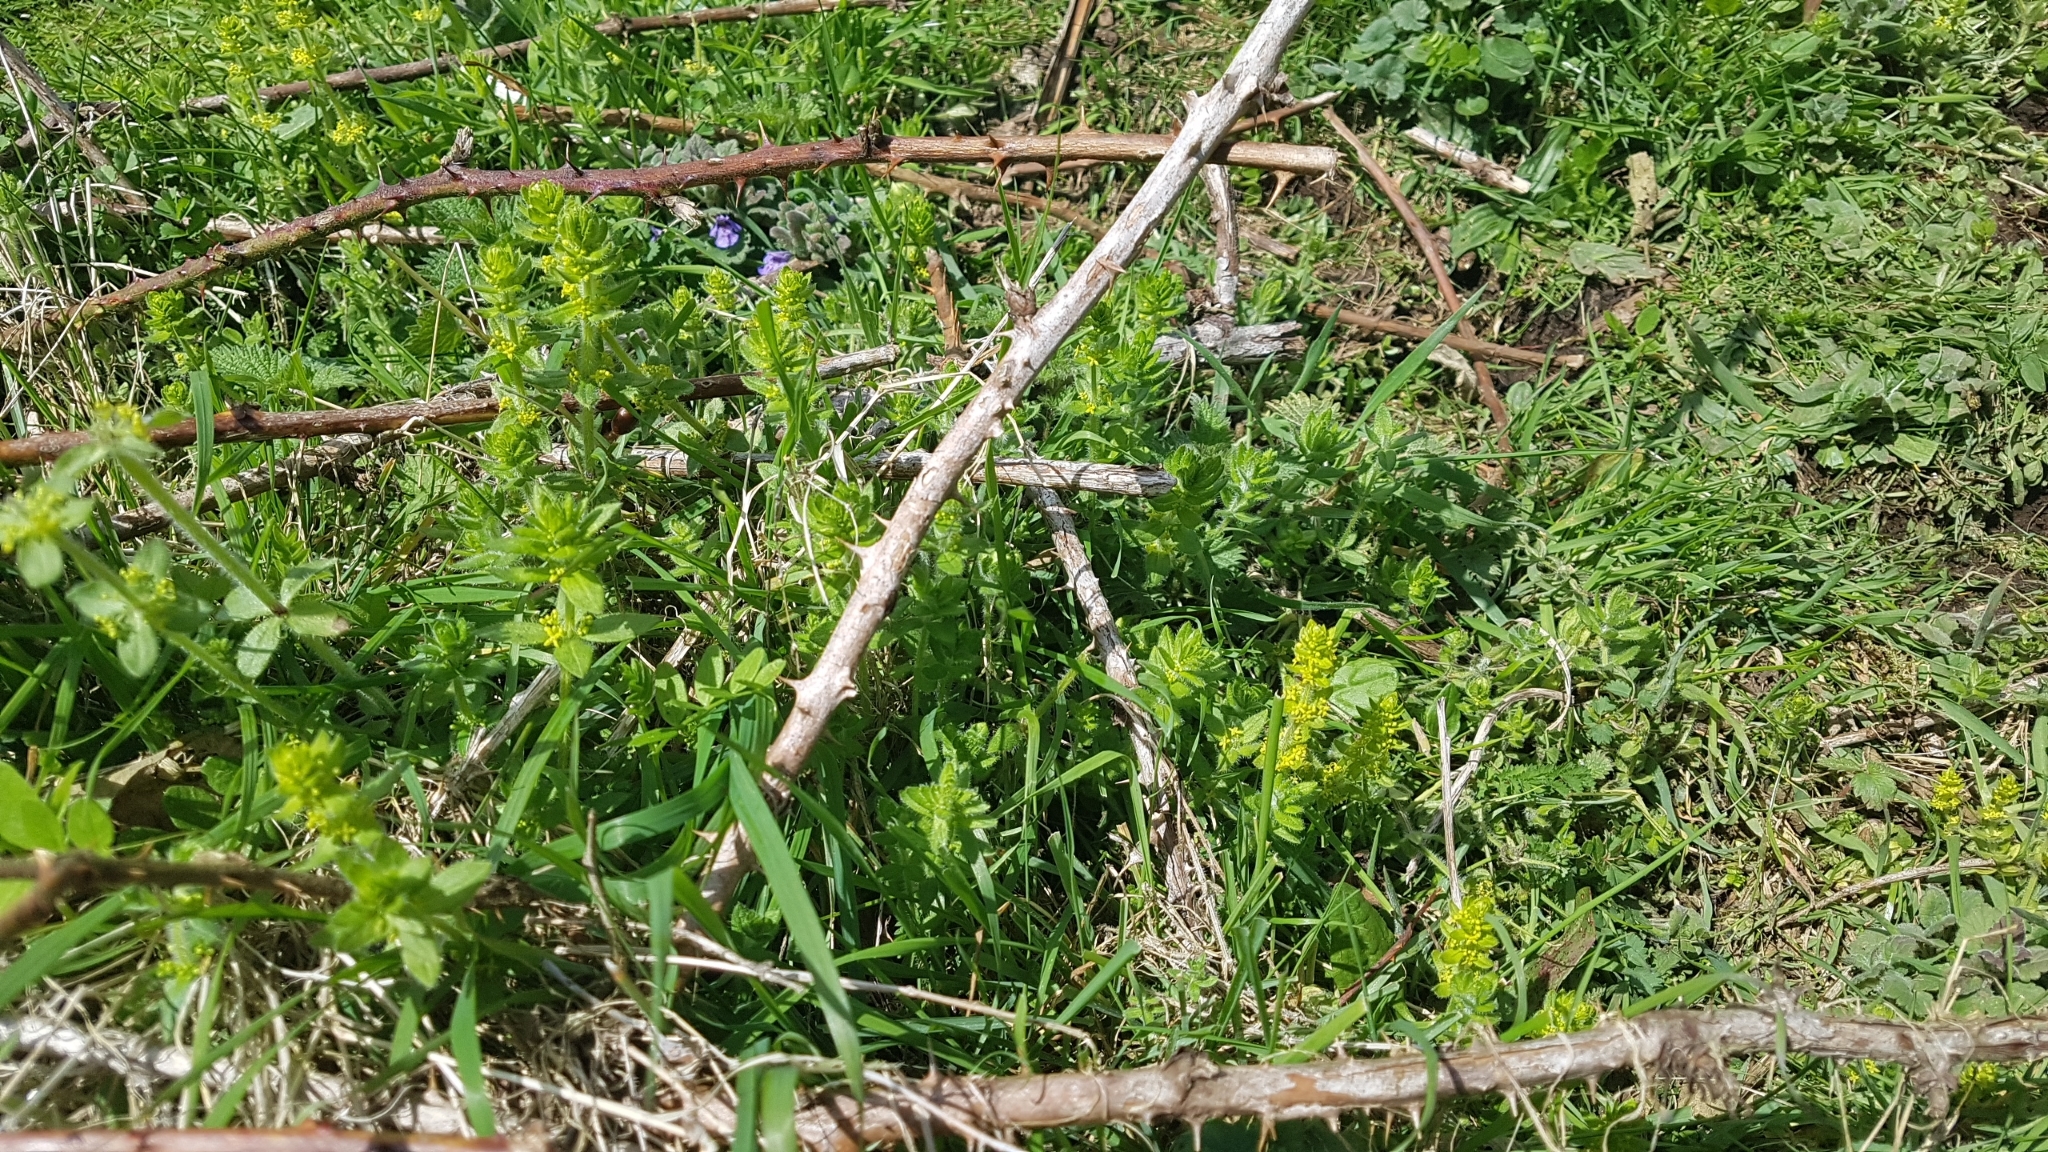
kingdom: Plantae
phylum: Tracheophyta
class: Magnoliopsida
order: Gentianales
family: Rubiaceae
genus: Cruciata
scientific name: Cruciata laevipes
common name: Crosswort
